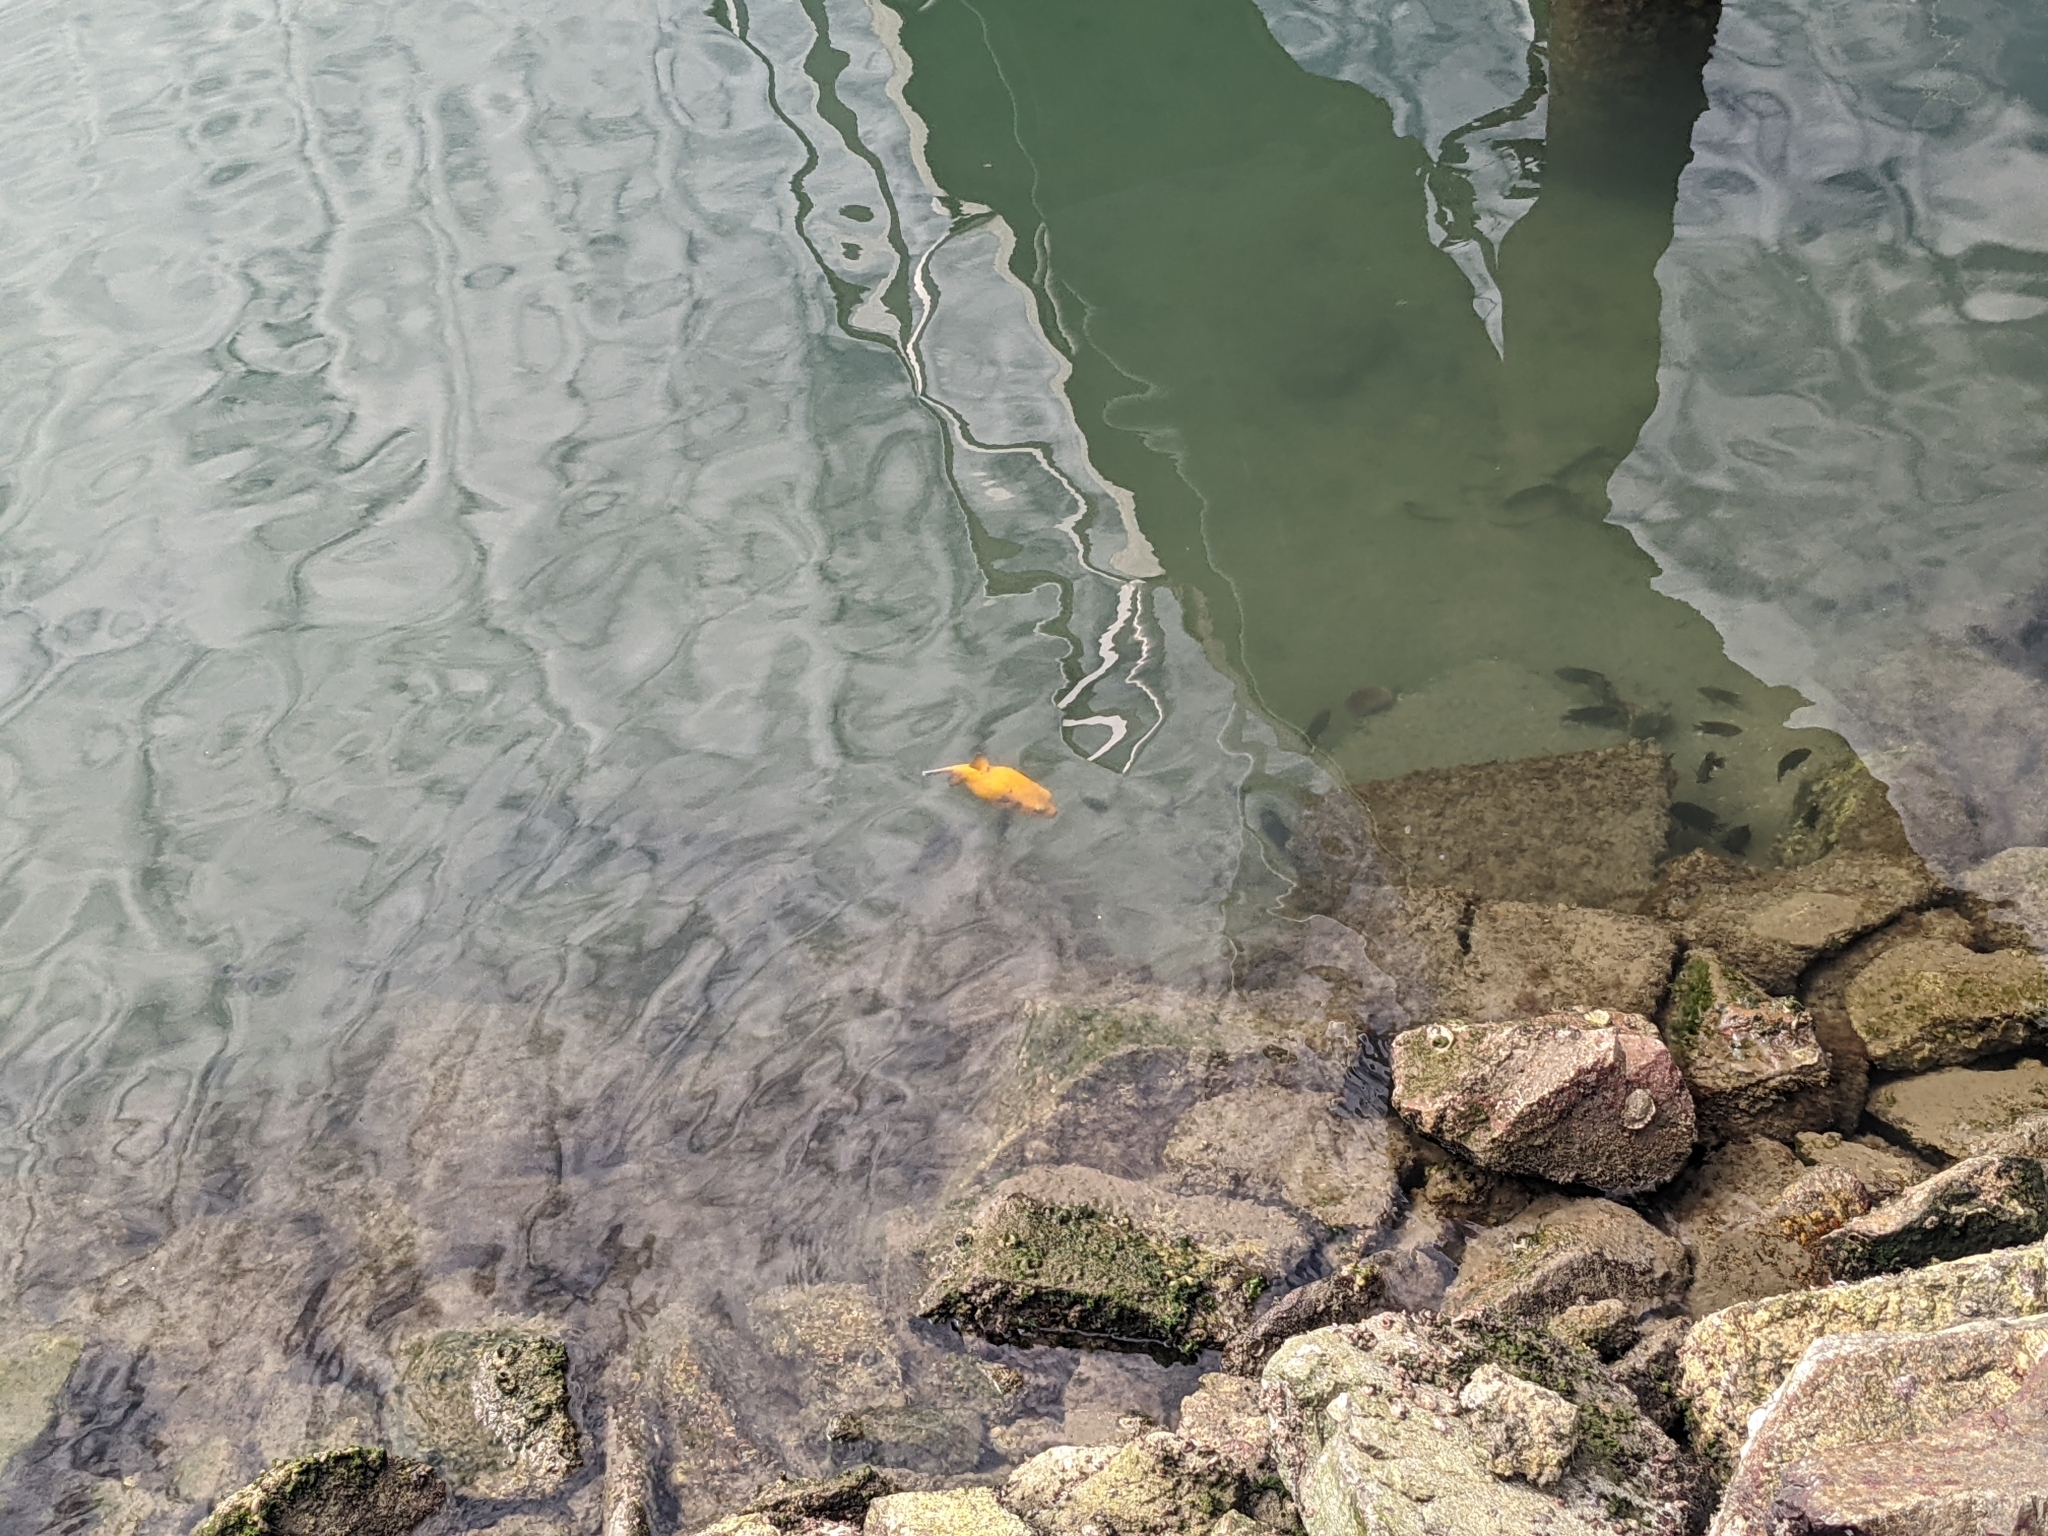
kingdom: Animalia
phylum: Chordata
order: Tetraodontiformes
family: Tetraodontidae
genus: Arothron
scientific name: Arothron meleagris
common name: Guinea-fowl pufferfish
